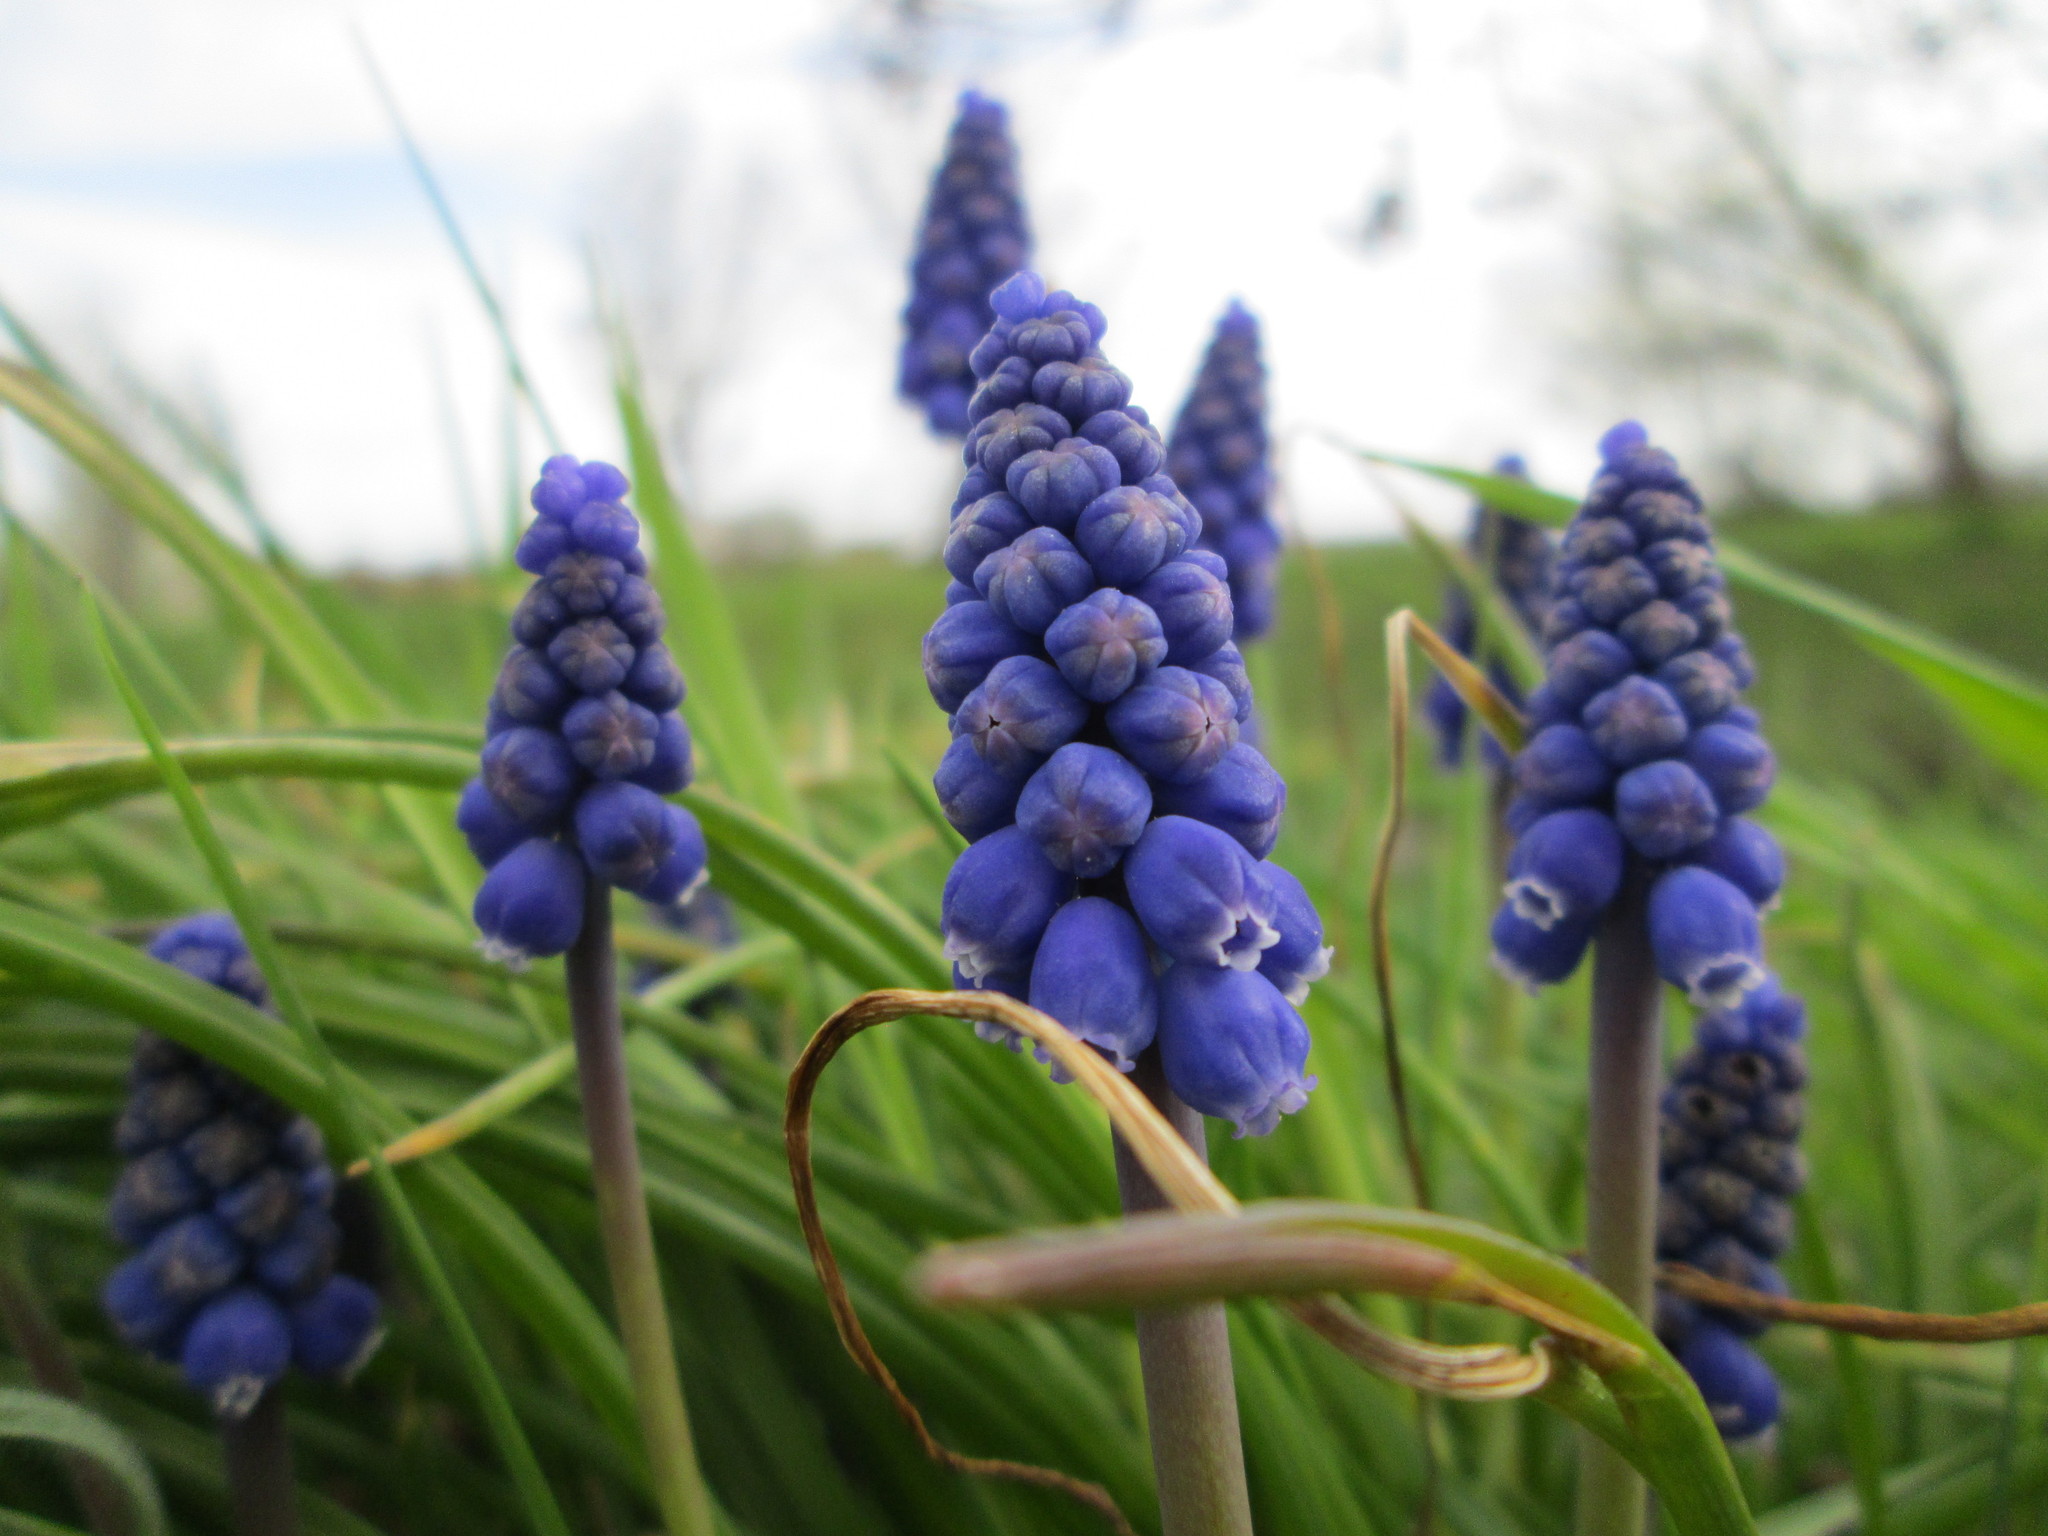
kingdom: Plantae
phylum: Tracheophyta
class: Liliopsida
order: Asparagales
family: Asparagaceae
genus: Muscari
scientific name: Muscari armeniacum
